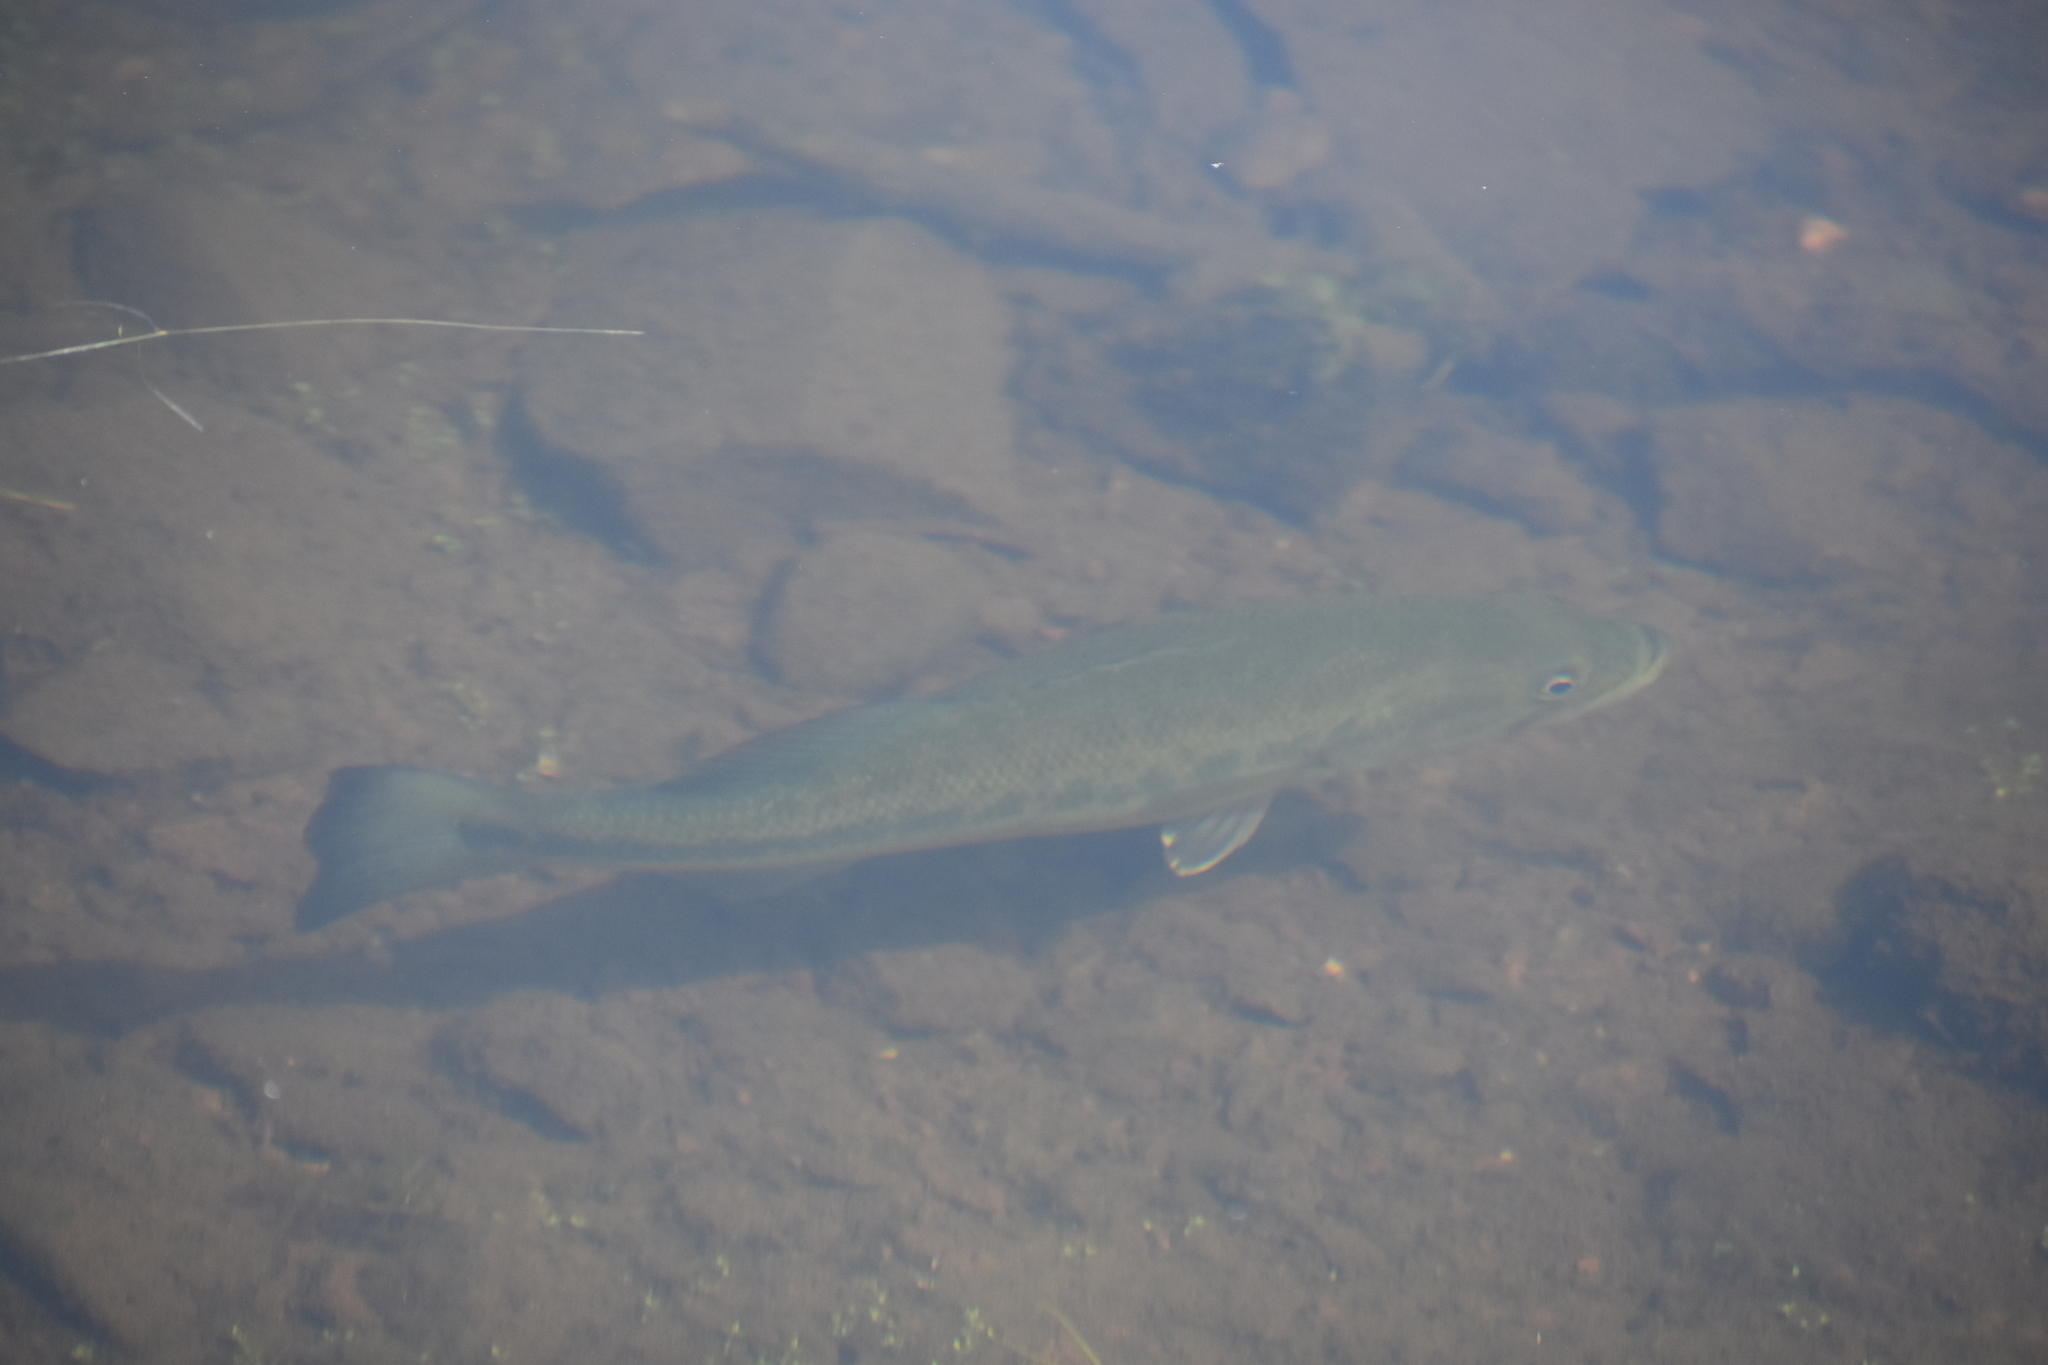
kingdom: Animalia
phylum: Chordata
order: Perciformes
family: Centrarchidae
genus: Micropterus
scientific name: Micropterus
